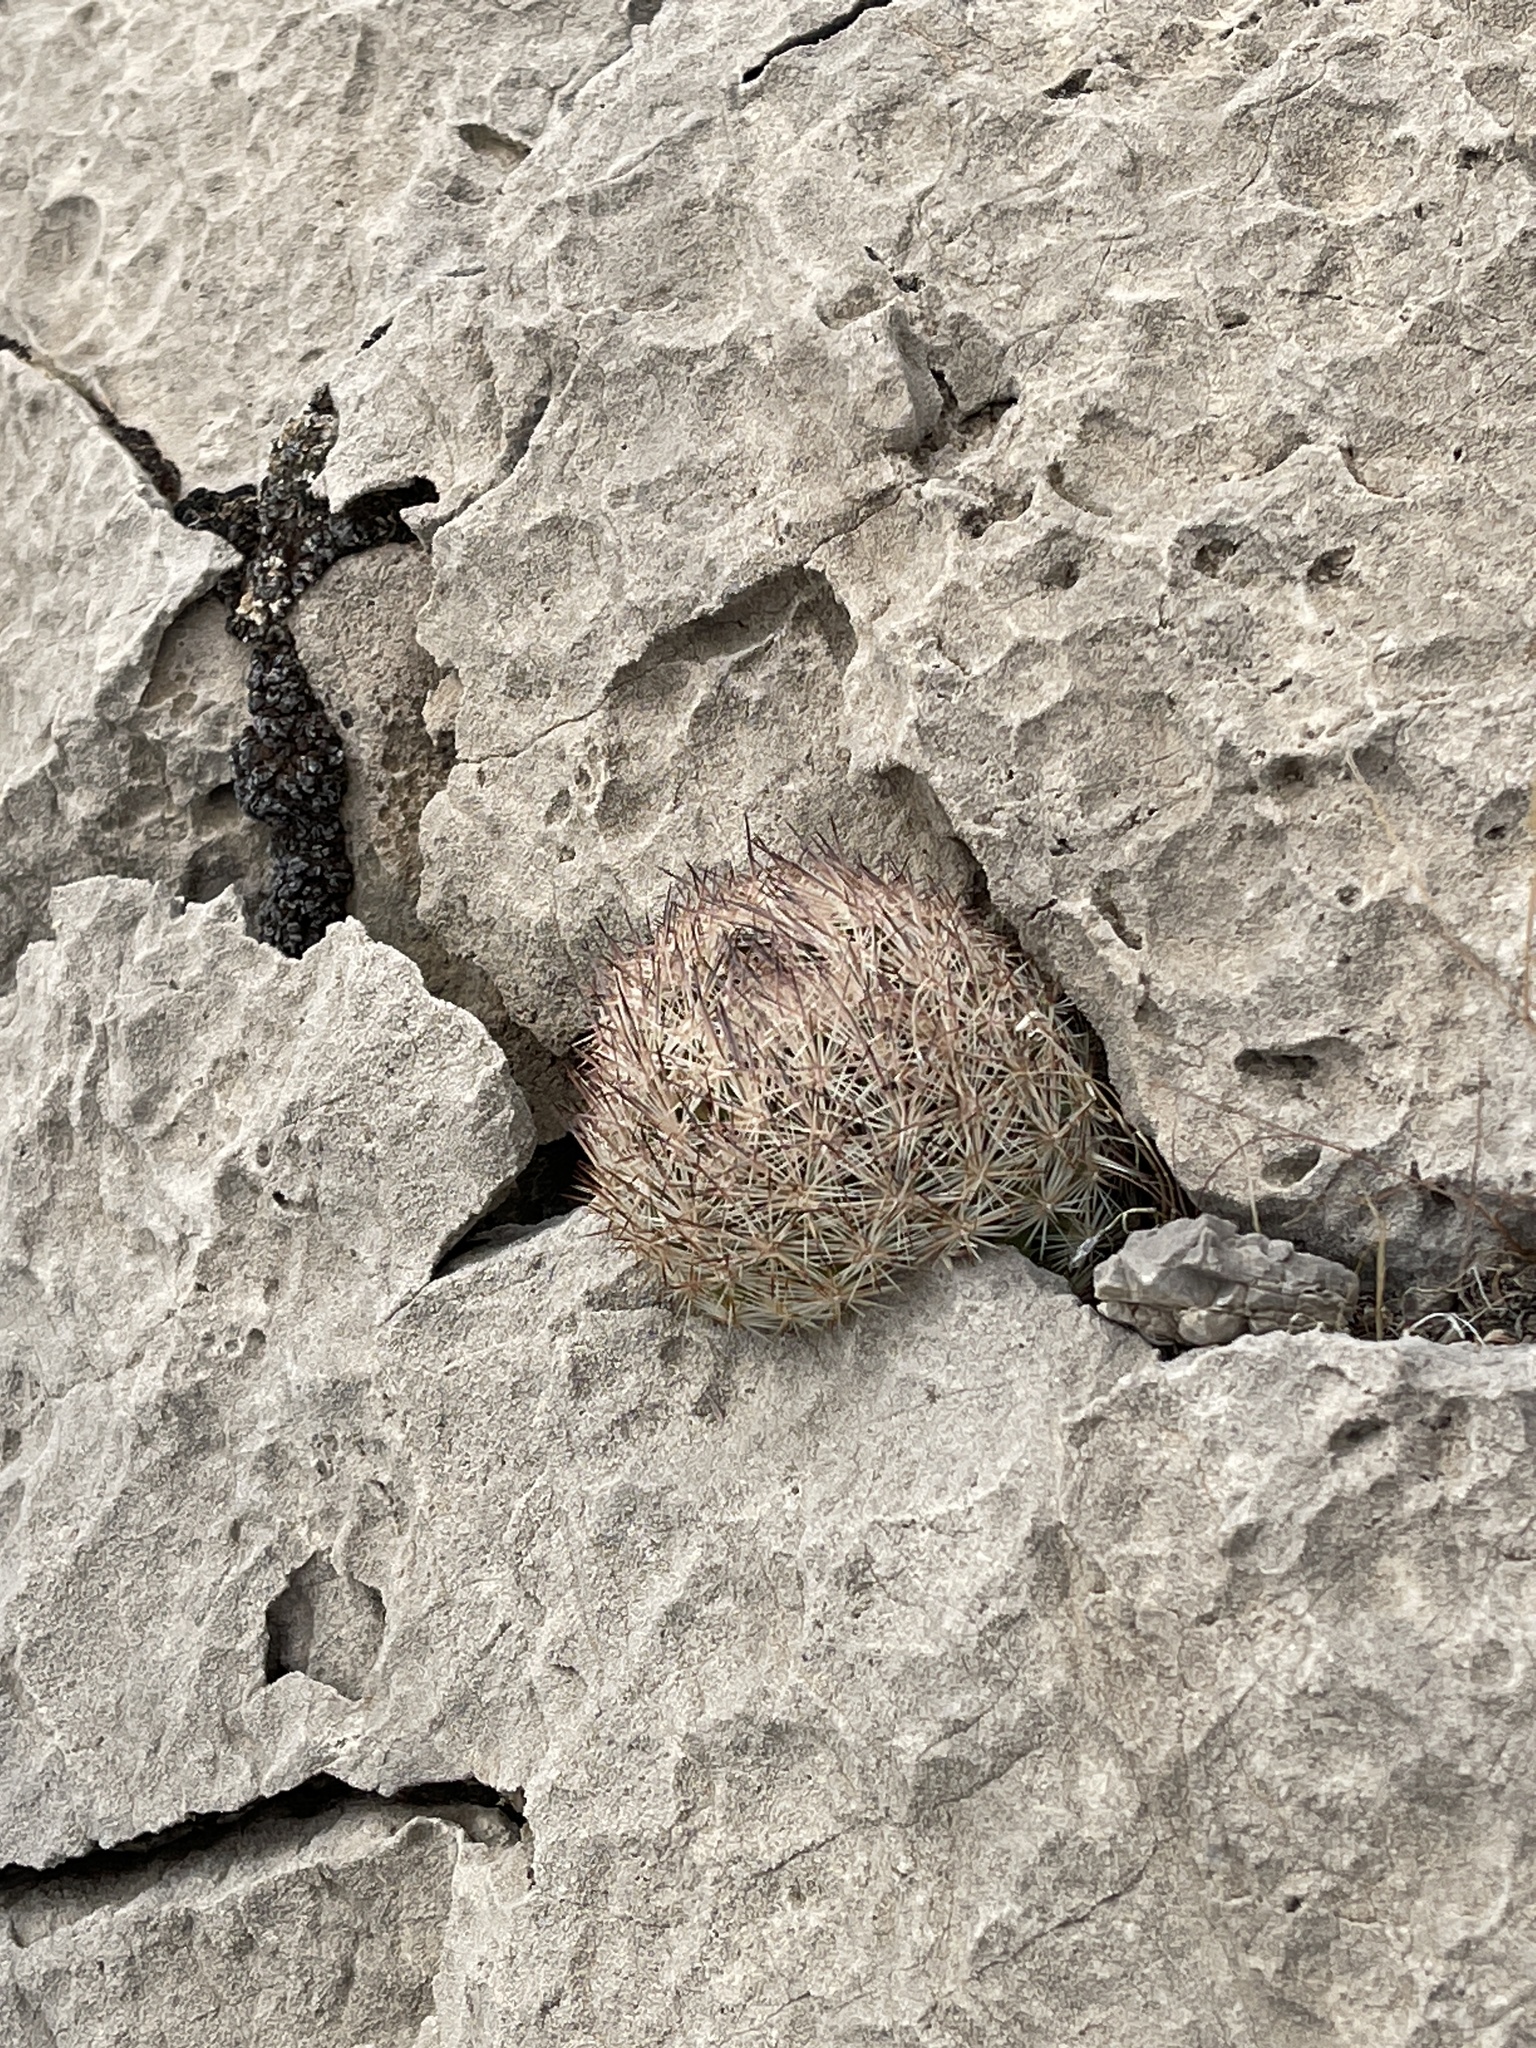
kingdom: Plantae
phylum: Tracheophyta
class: Magnoliopsida
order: Caryophyllales
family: Cactaceae
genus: Pelecyphora
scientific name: Pelecyphora vivipara
